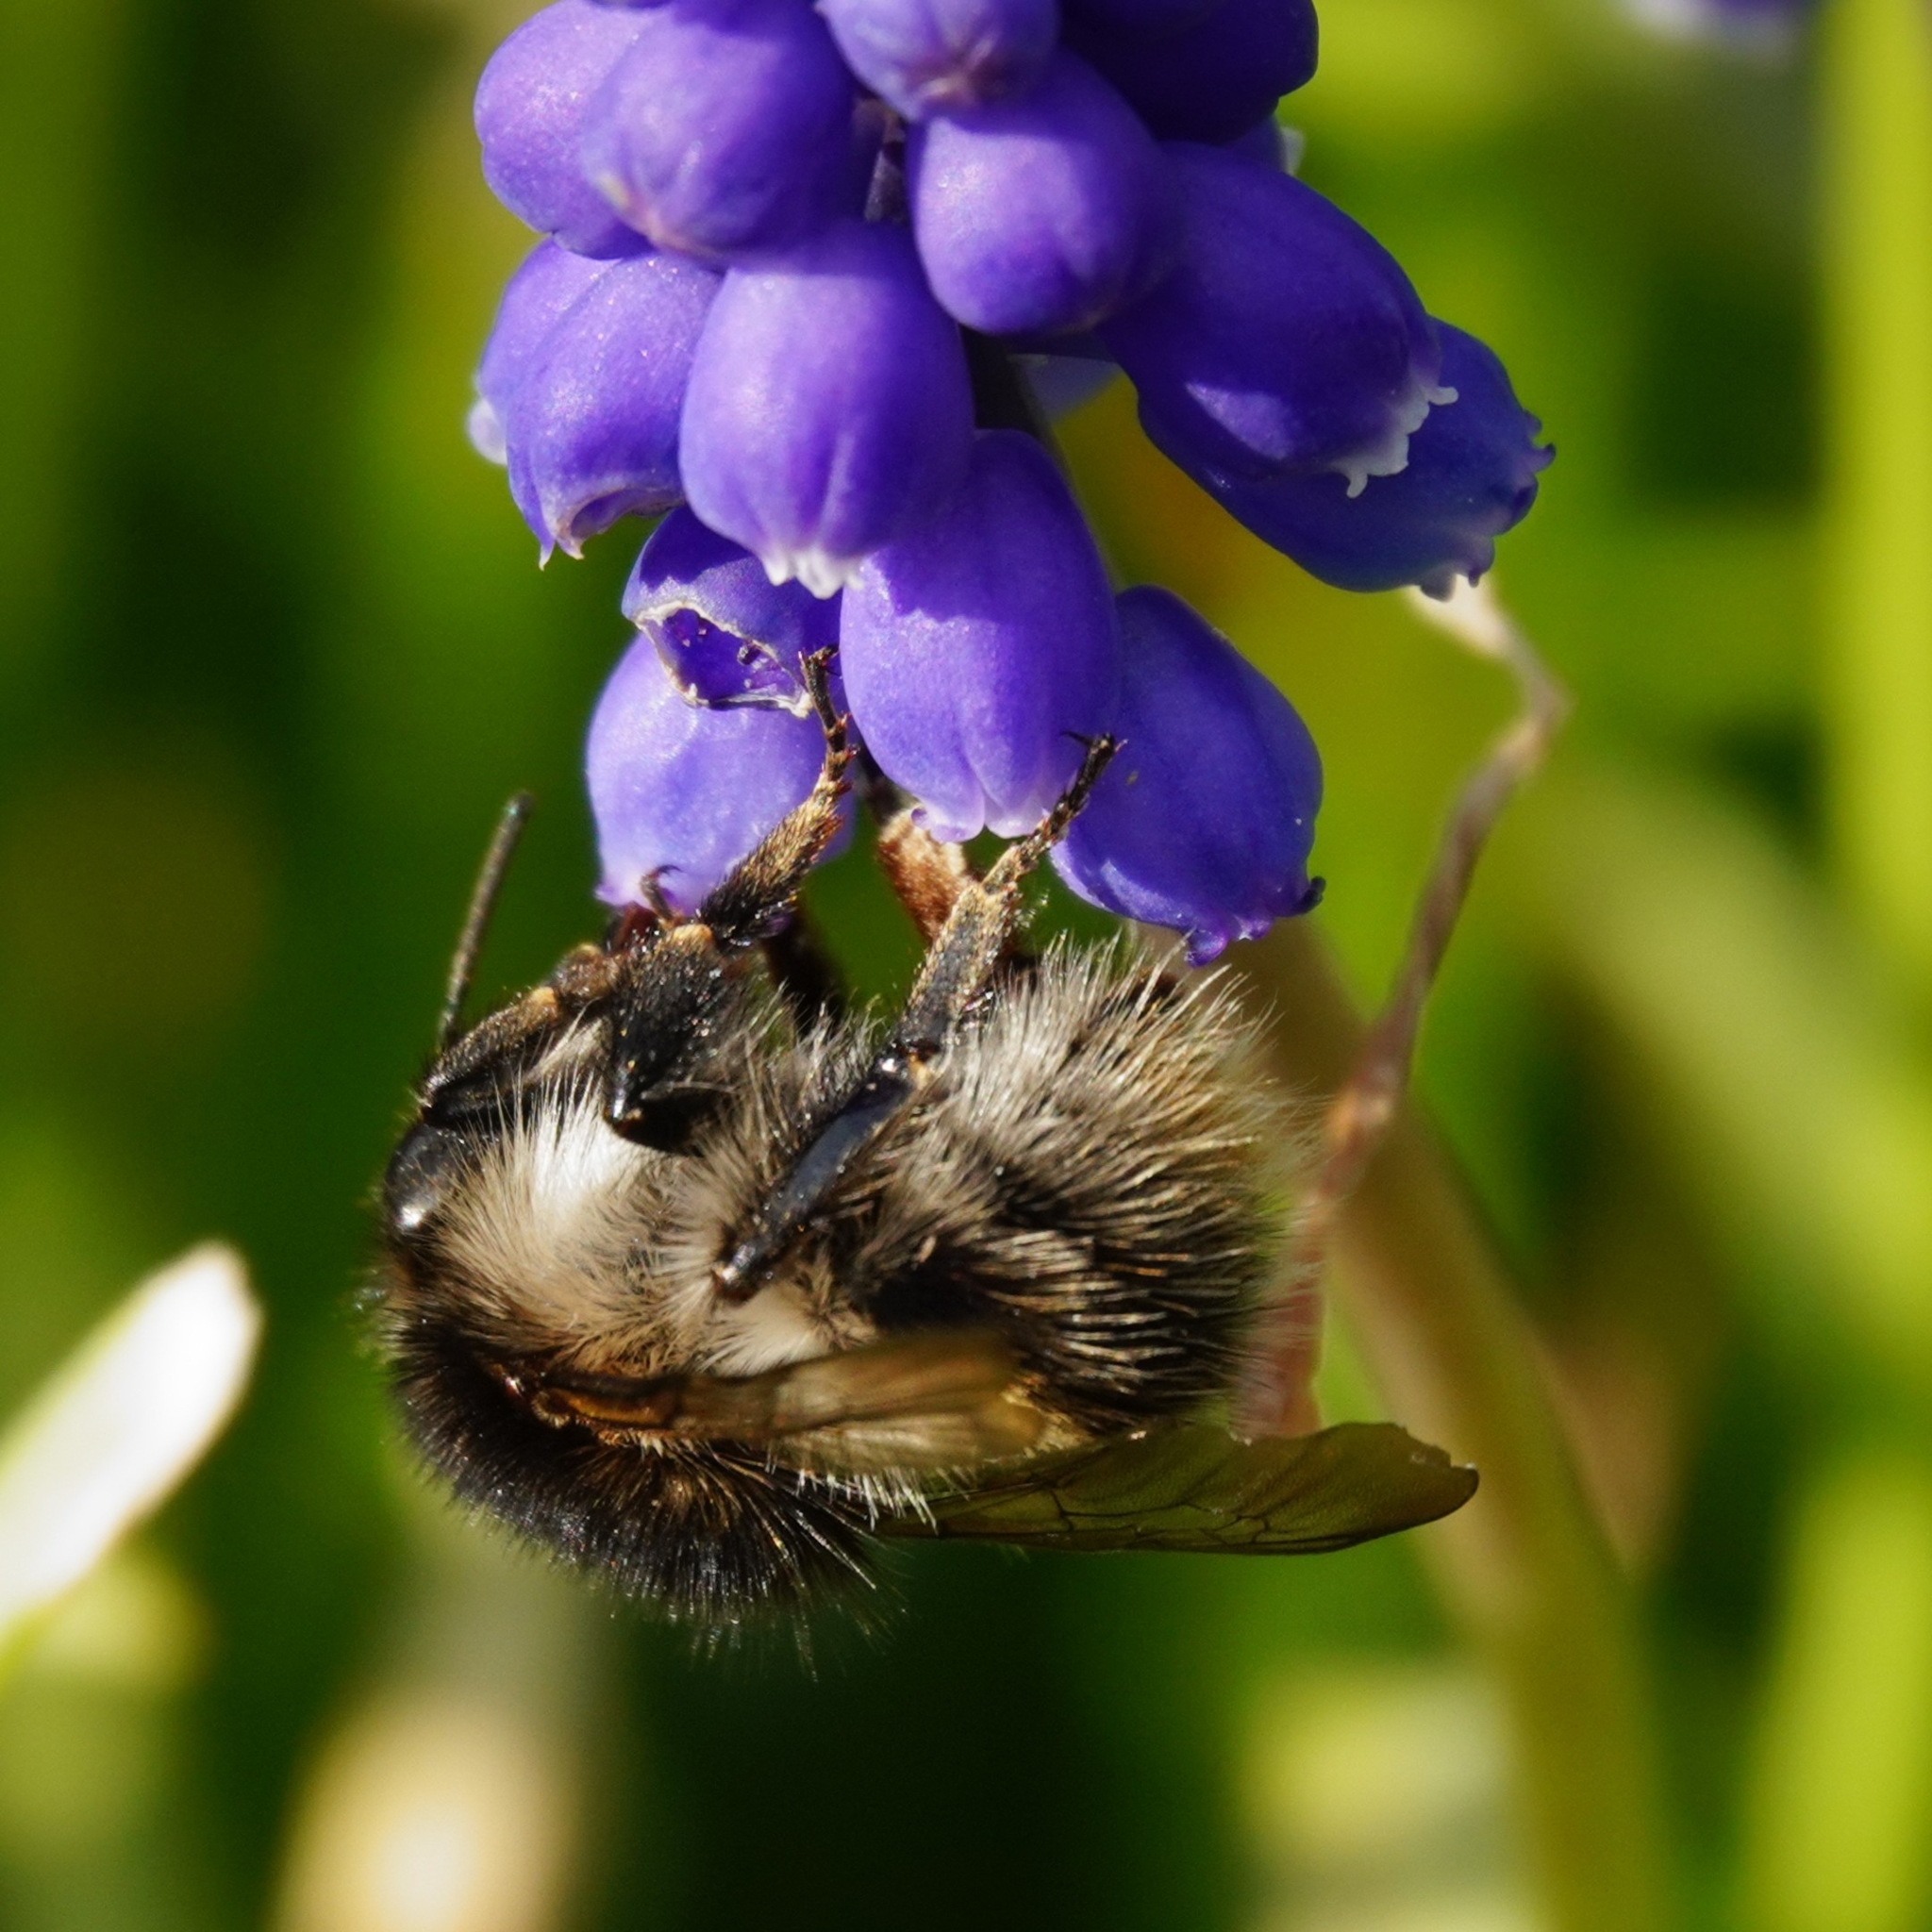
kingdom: Animalia
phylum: Arthropoda
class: Insecta
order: Hymenoptera
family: Apidae
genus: Bombus
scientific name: Bombus pascuorum
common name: Common carder bee
